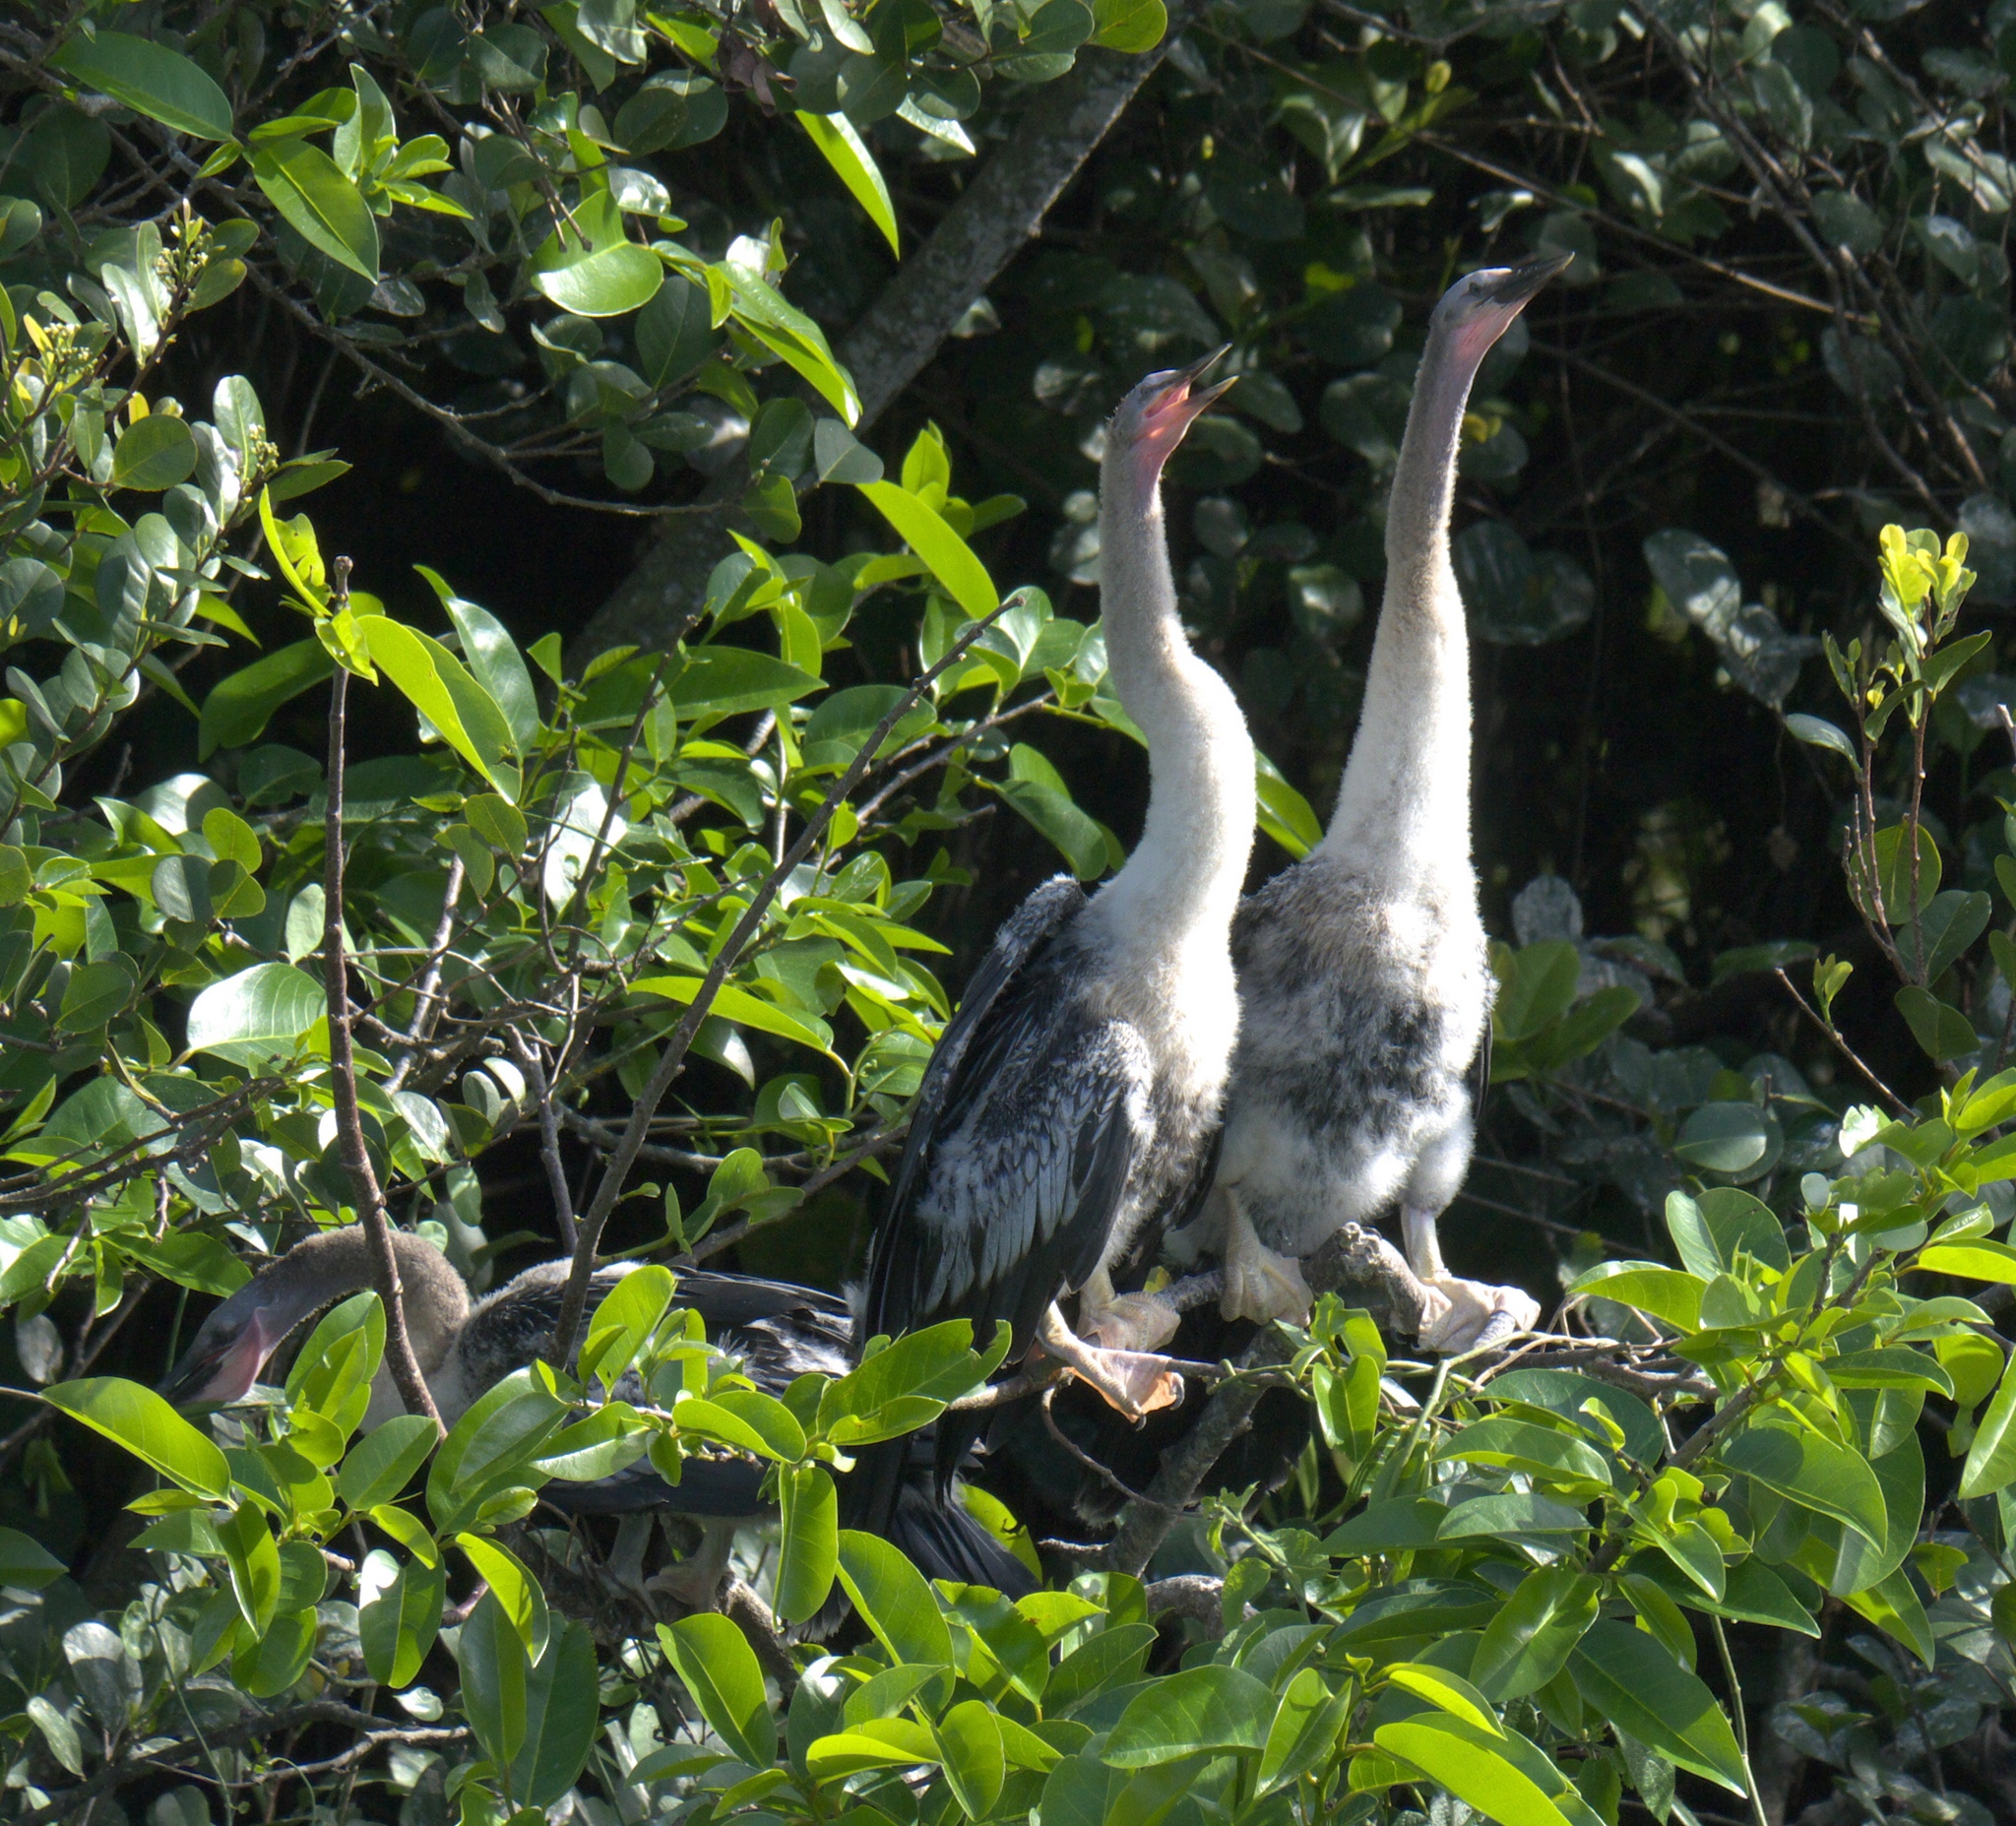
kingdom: Animalia
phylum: Chordata
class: Aves
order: Suliformes
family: Anhingidae
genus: Anhinga
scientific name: Anhinga anhinga
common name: Anhinga
